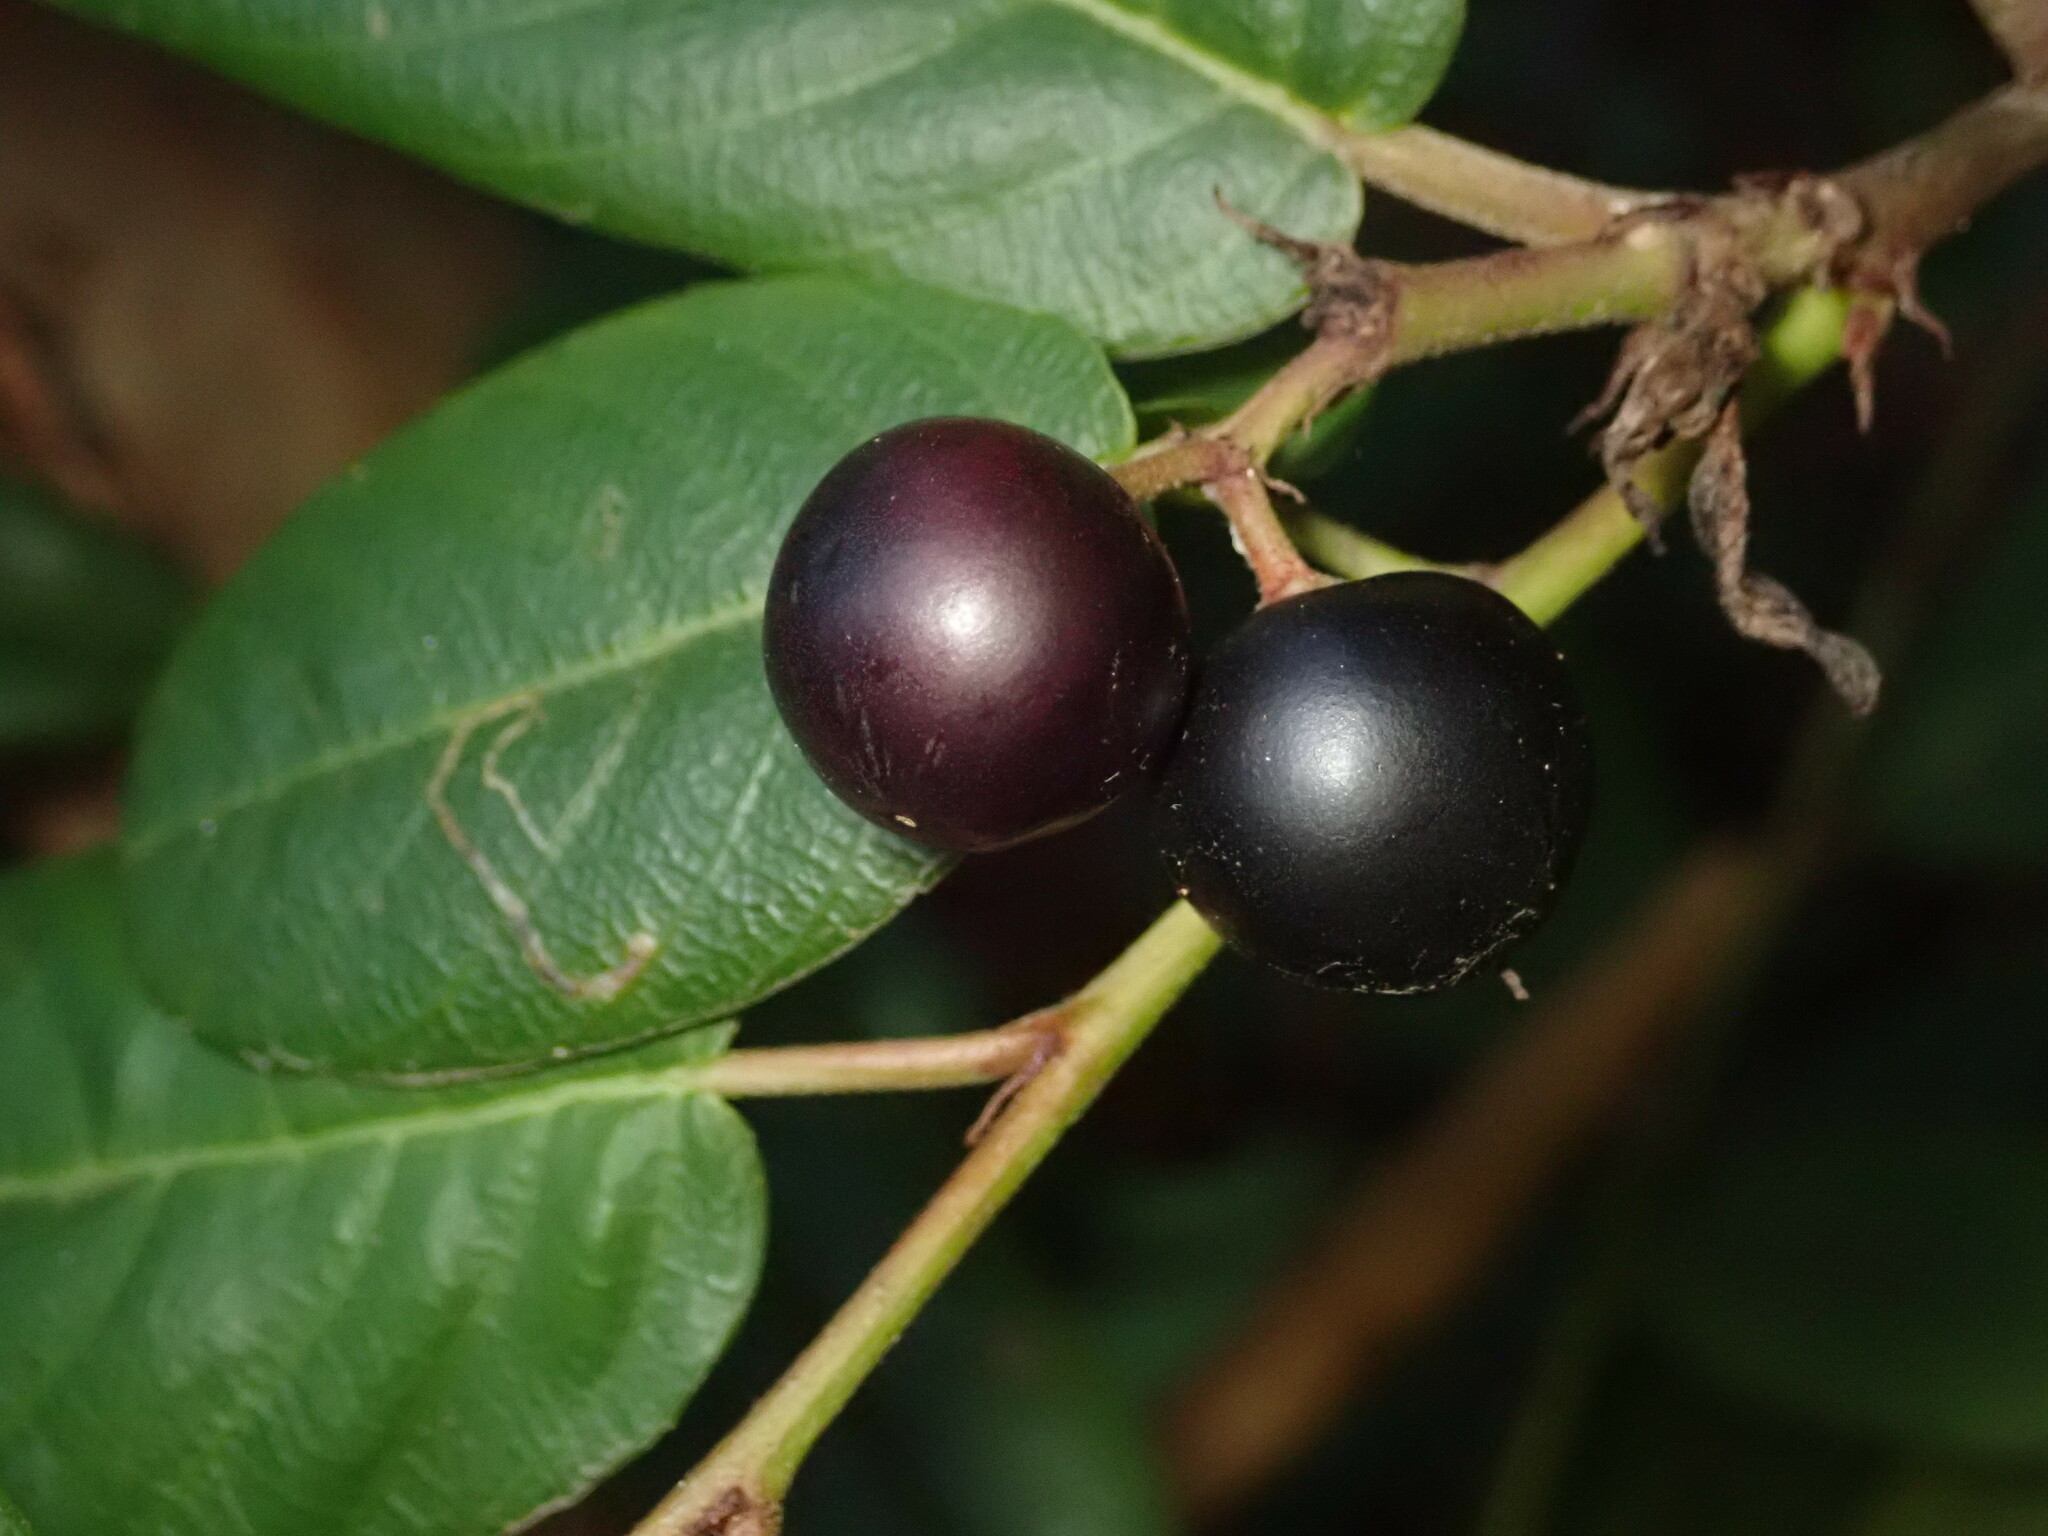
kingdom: Plantae
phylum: Tracheophyta
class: Magnoliopsida
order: Rosales
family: Rhamnaceae
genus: Frangula
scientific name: Frangula californica
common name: California buckthorn
